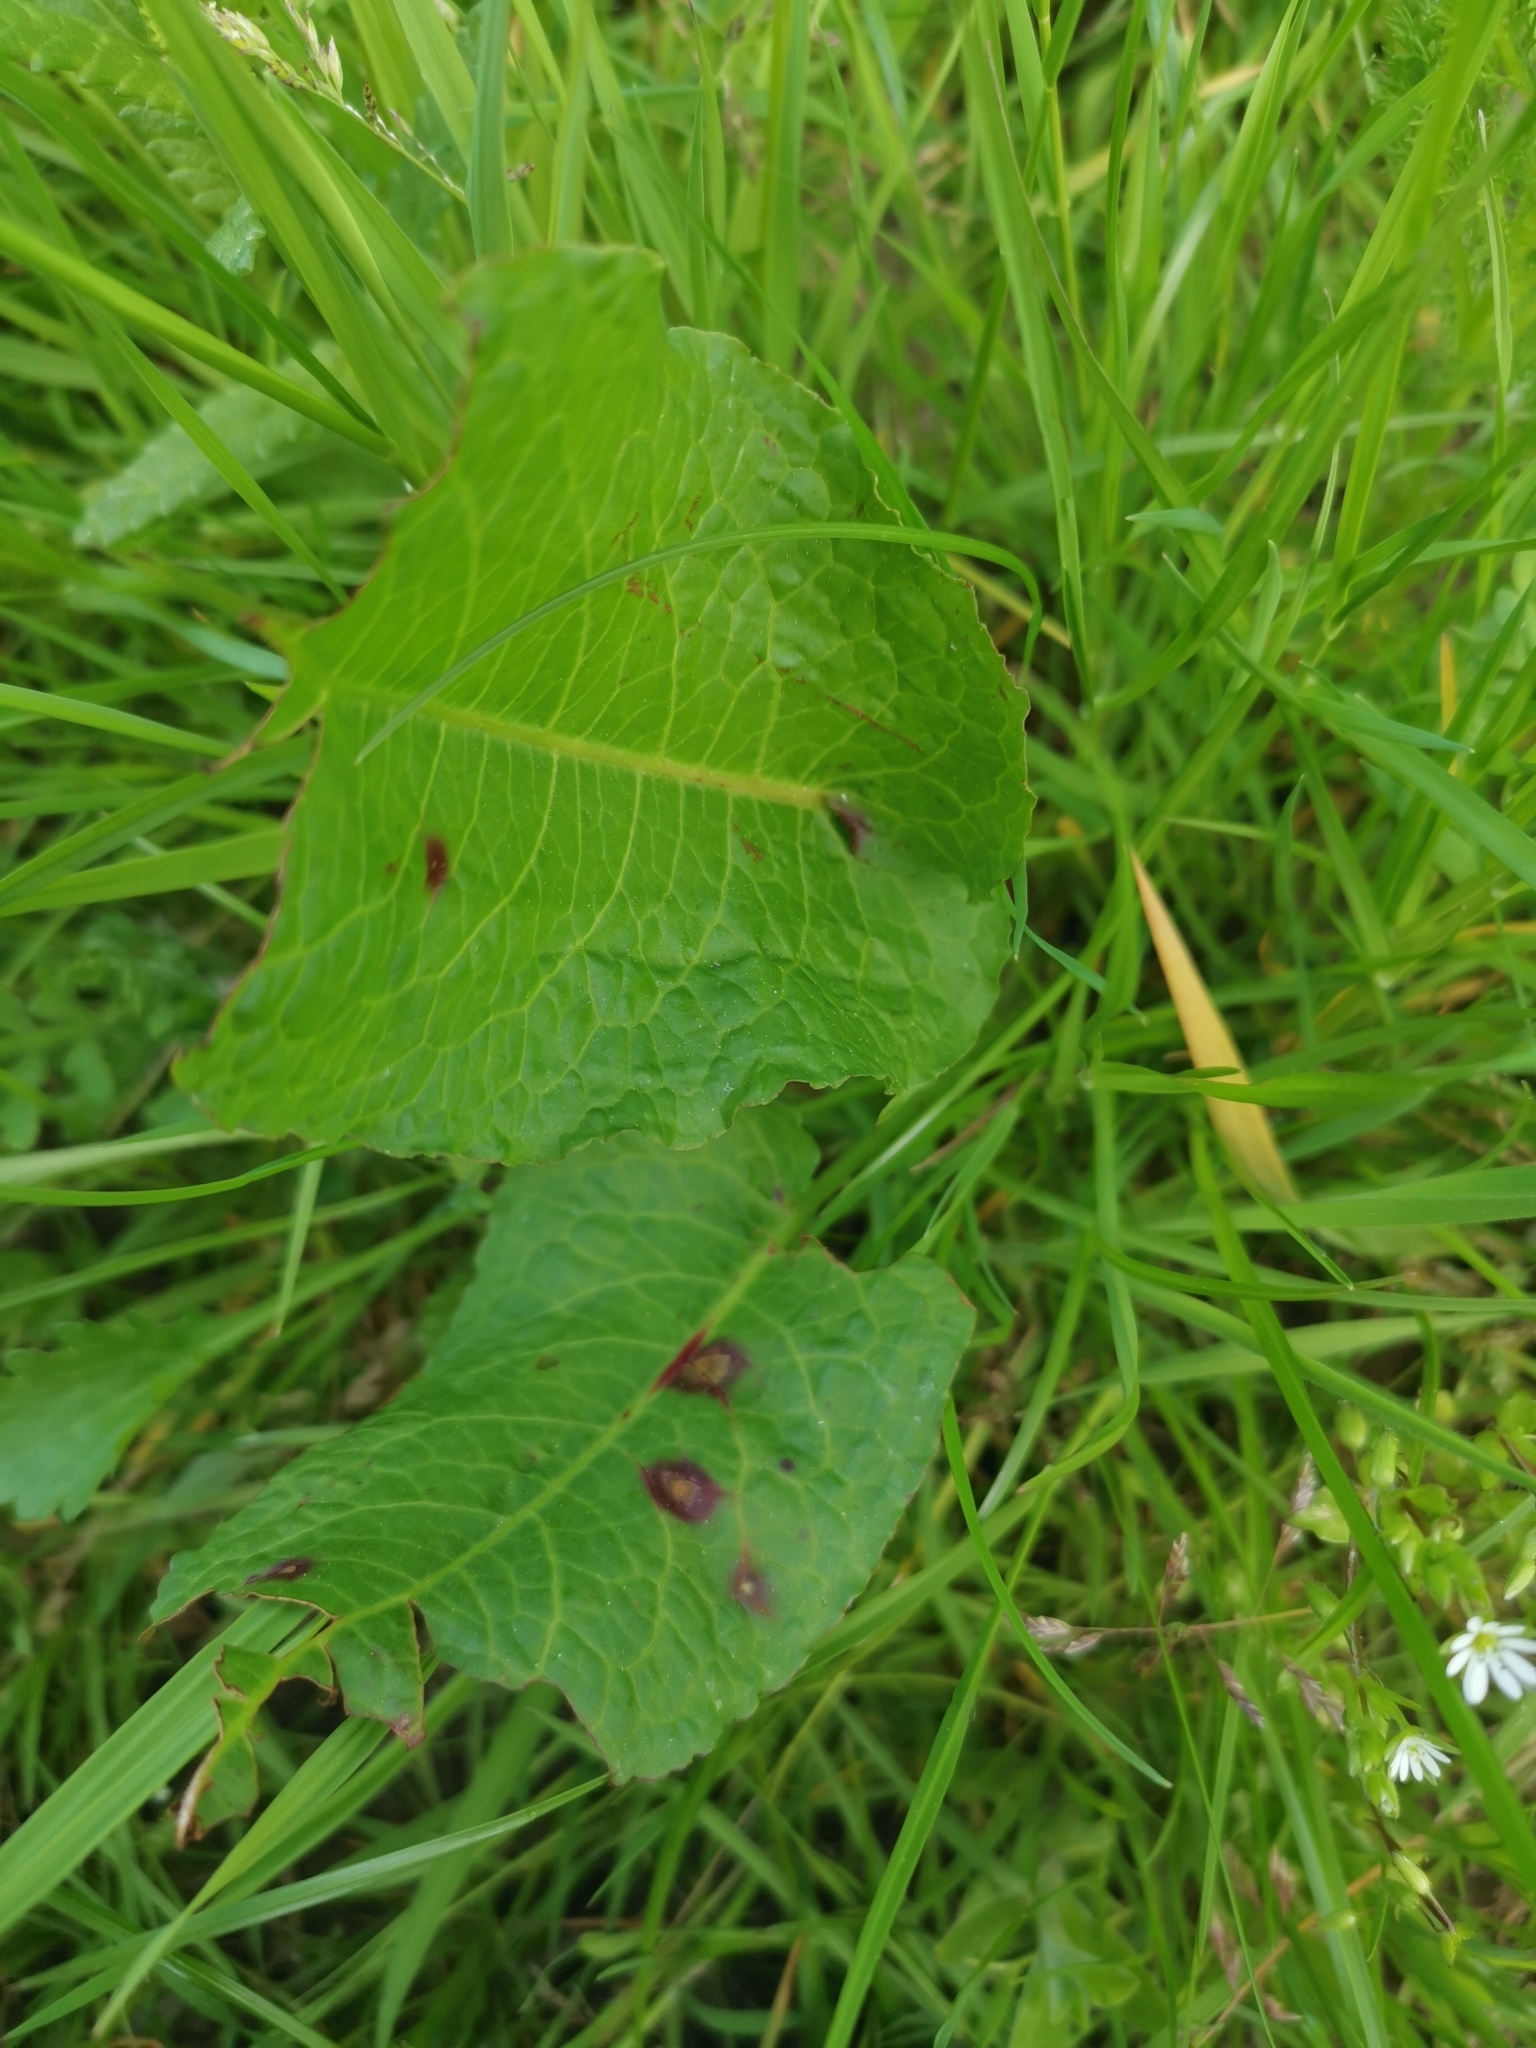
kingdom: Plantae
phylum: Tracheophyta
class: Magnoliopsida
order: Caryophyllales
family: Polygonaceae
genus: Rumex
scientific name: Rumex obtusifolius
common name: Bitter dock
